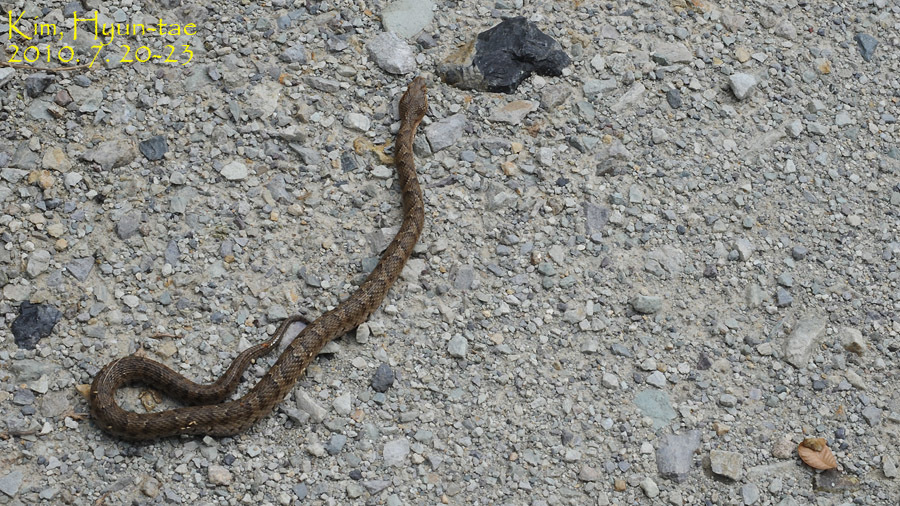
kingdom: Animalia
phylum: Chordata
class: Squamata
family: Viperidae
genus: Gloydius
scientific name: Gloydius ussuriensis
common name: Ussuri mamushi
